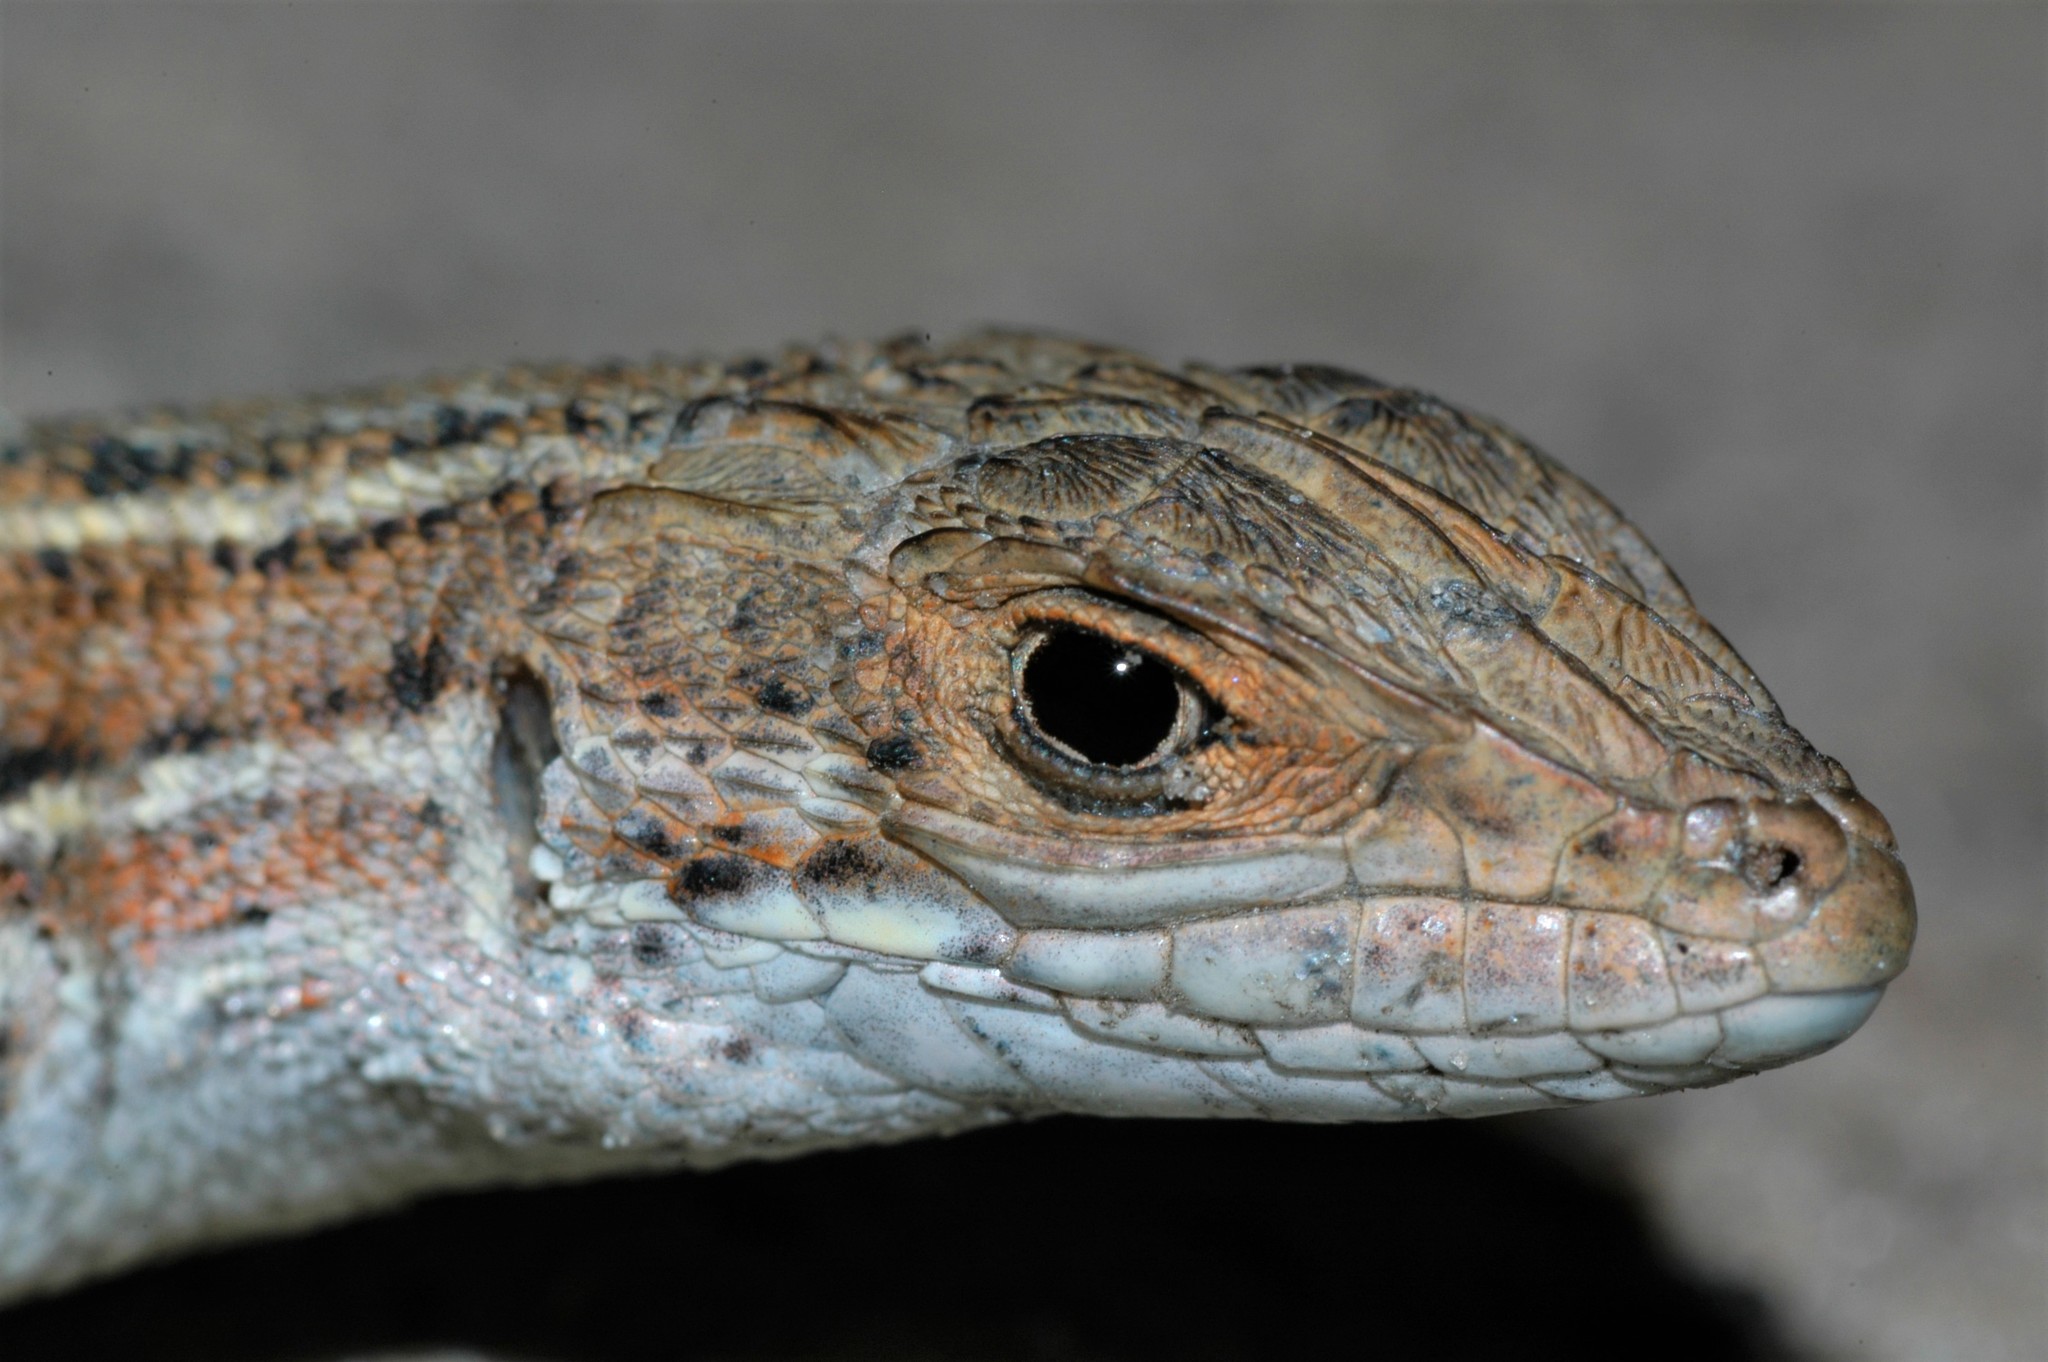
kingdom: Animalia
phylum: Chordata
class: Squamata
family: Lacertidae
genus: Meroles
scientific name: Meroles squamulosus
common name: Common desert lizard
